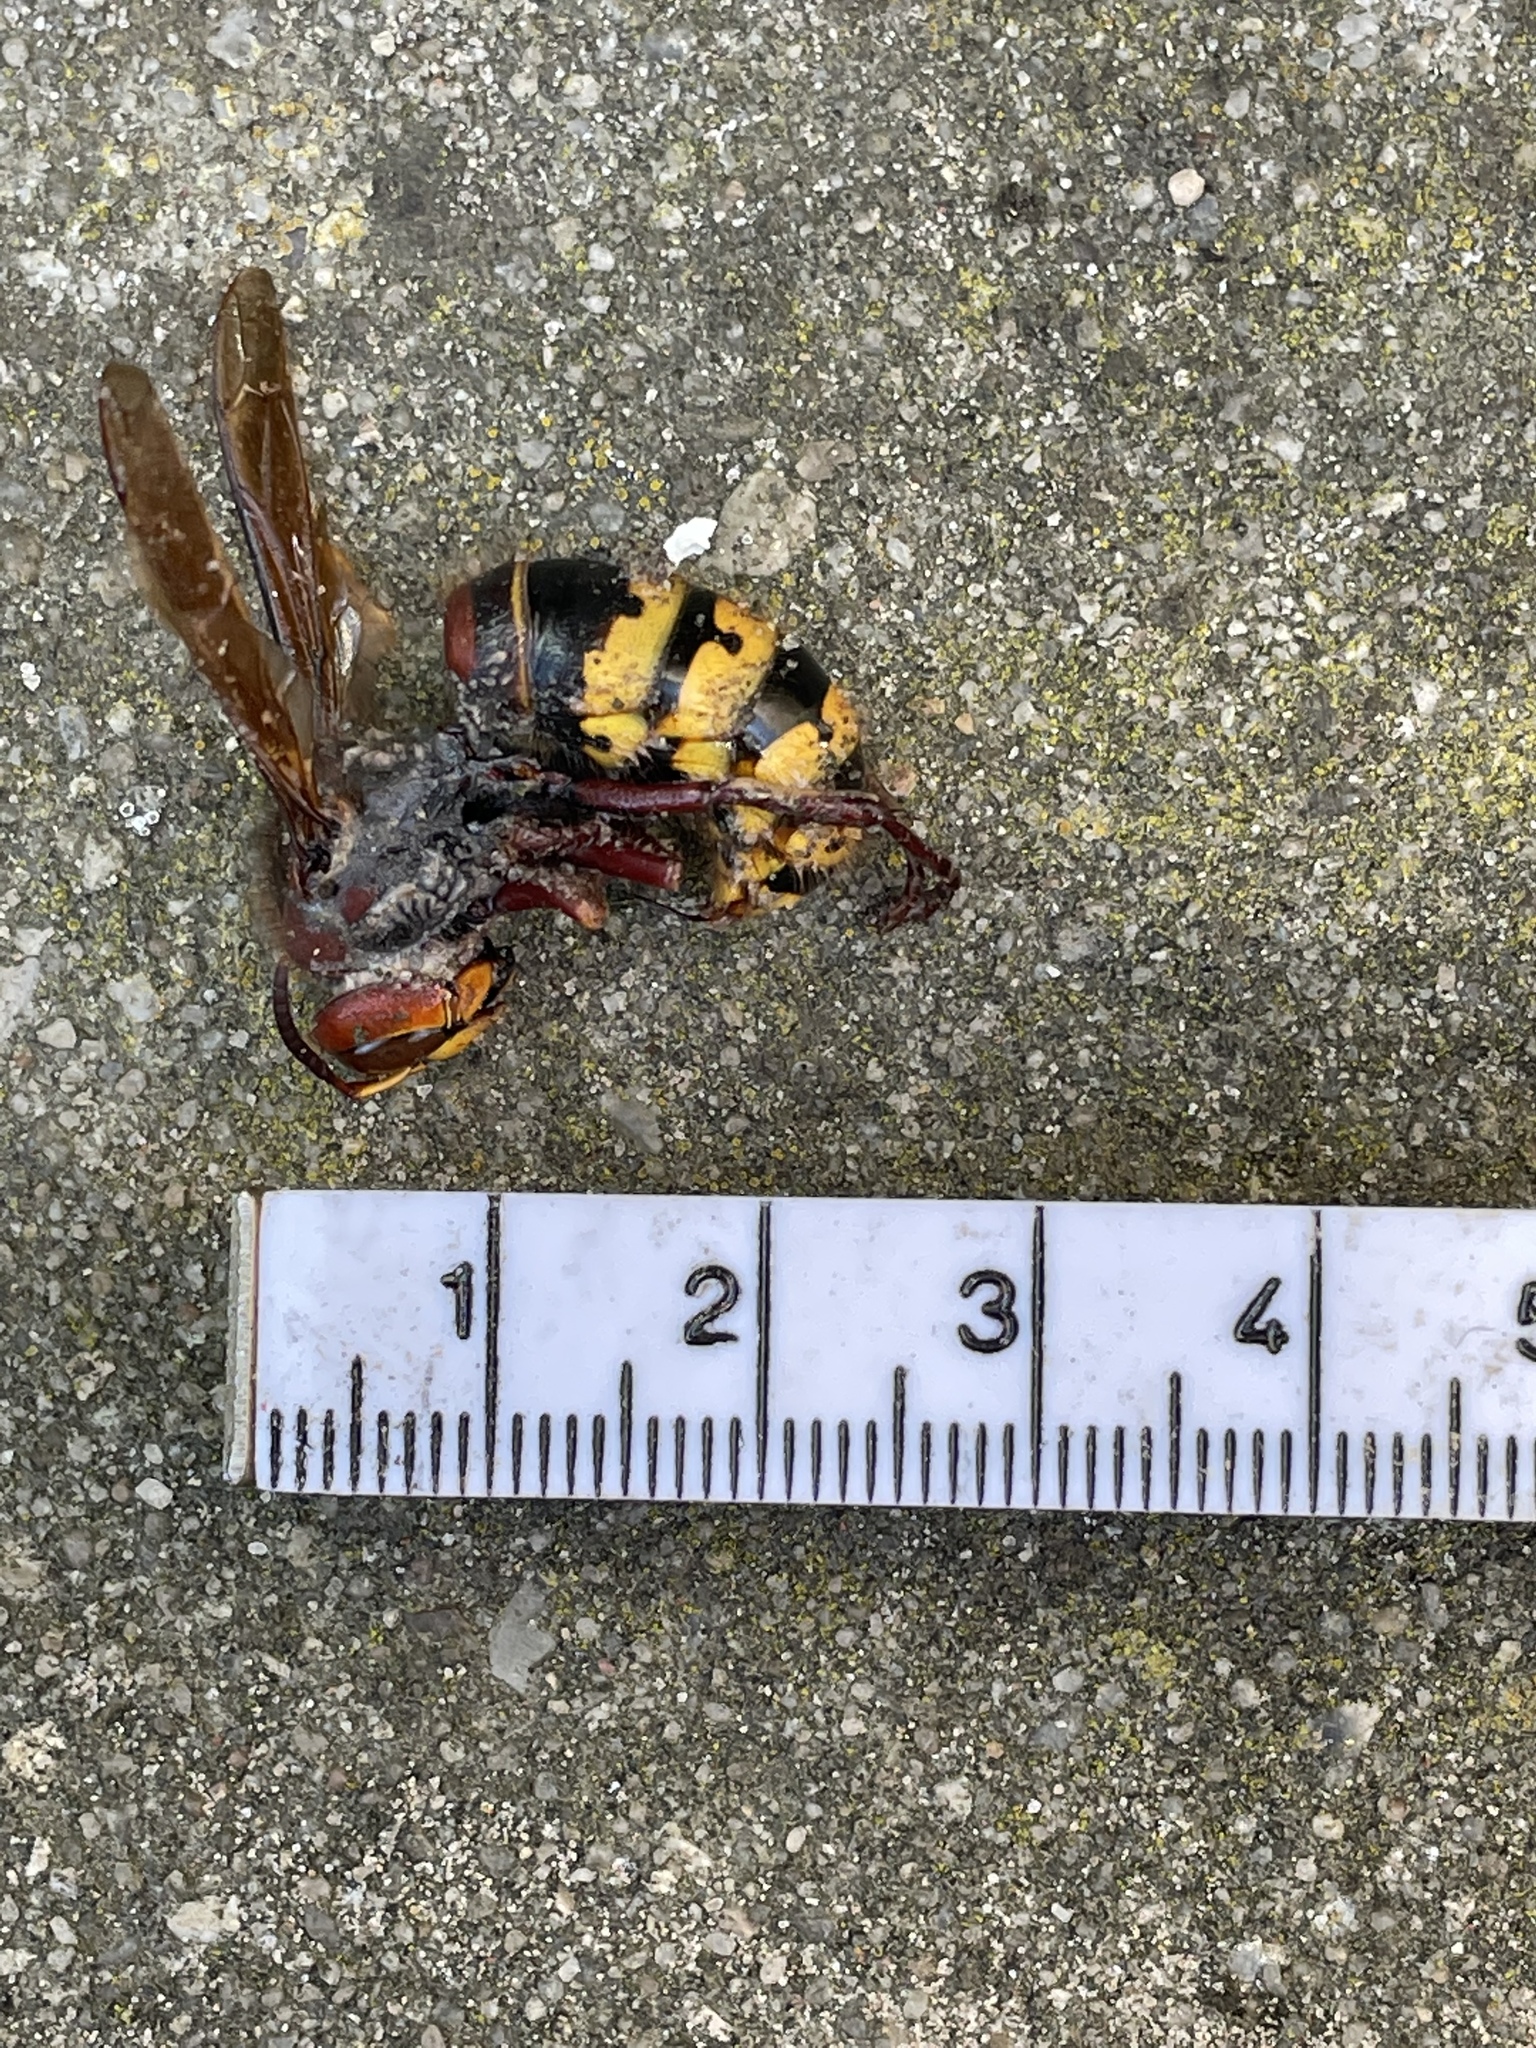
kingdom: Animalia
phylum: Arthropoda
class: Insecta
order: Hymenoptera
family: Vespidae
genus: Vespa
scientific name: Vespa crabro
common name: Hornet
